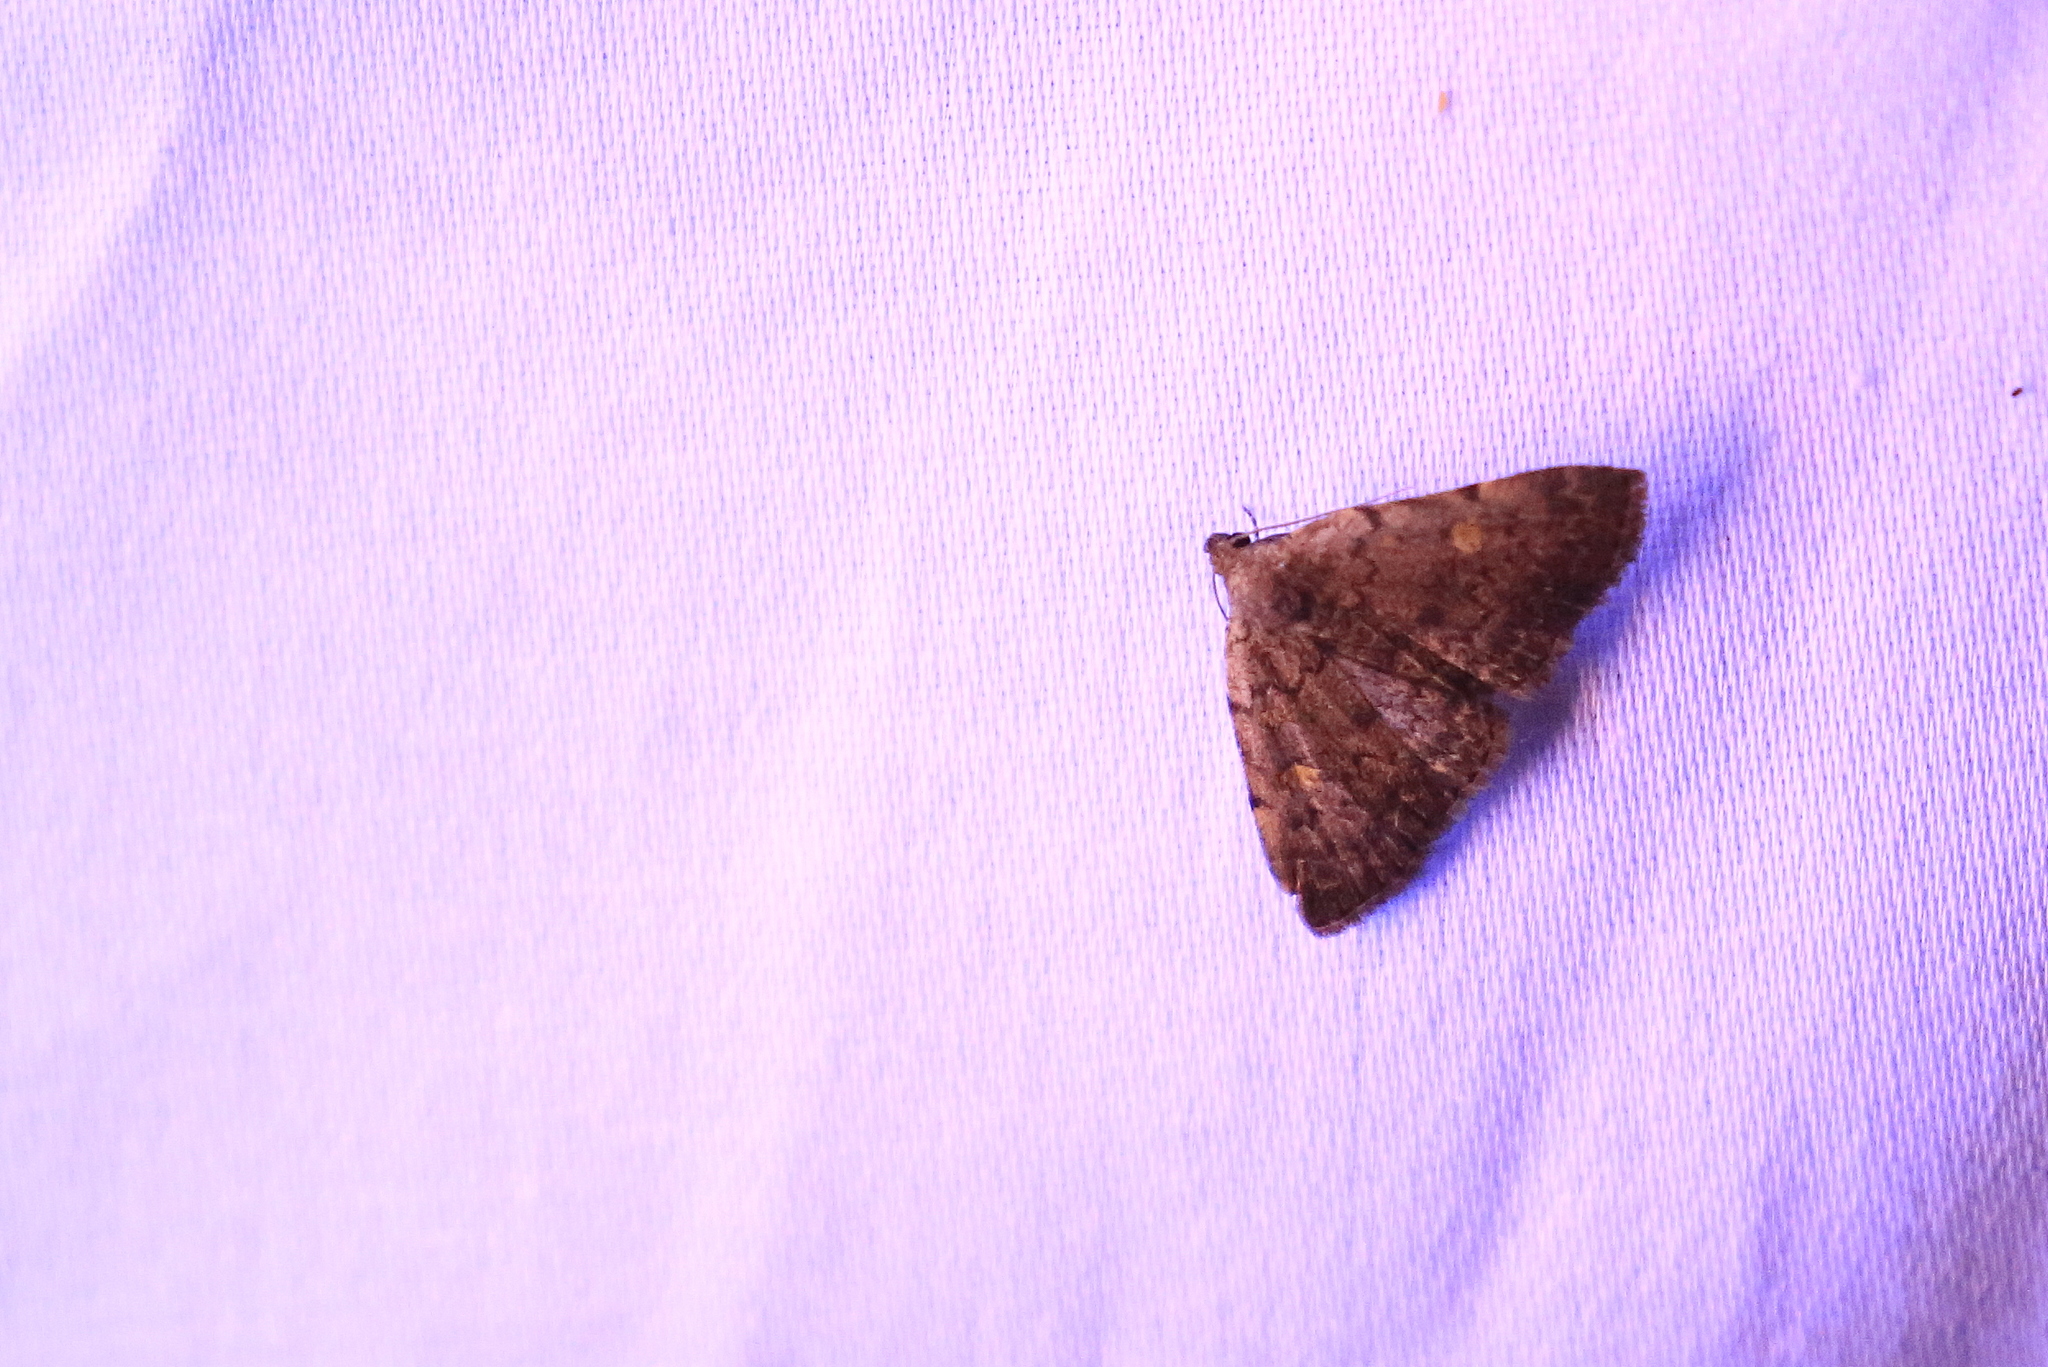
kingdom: Animalia
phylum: Arthropoda
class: Insecta
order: Lepidoptera
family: Erebidae
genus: Idia
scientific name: Idia aemula
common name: Common idia moth
